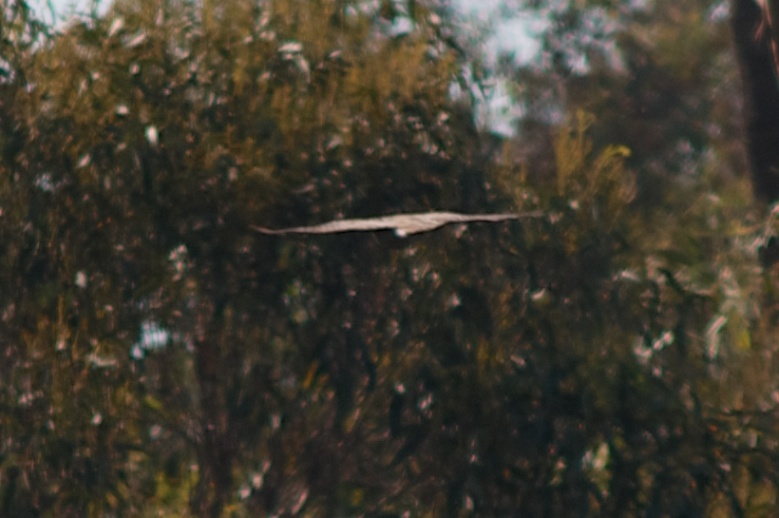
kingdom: Animalia
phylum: Chordata
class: Aves
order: Accipitriformes
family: Accipitridae
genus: Accipiter
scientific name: Accipiter cooperii
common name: Cooper's hawk
